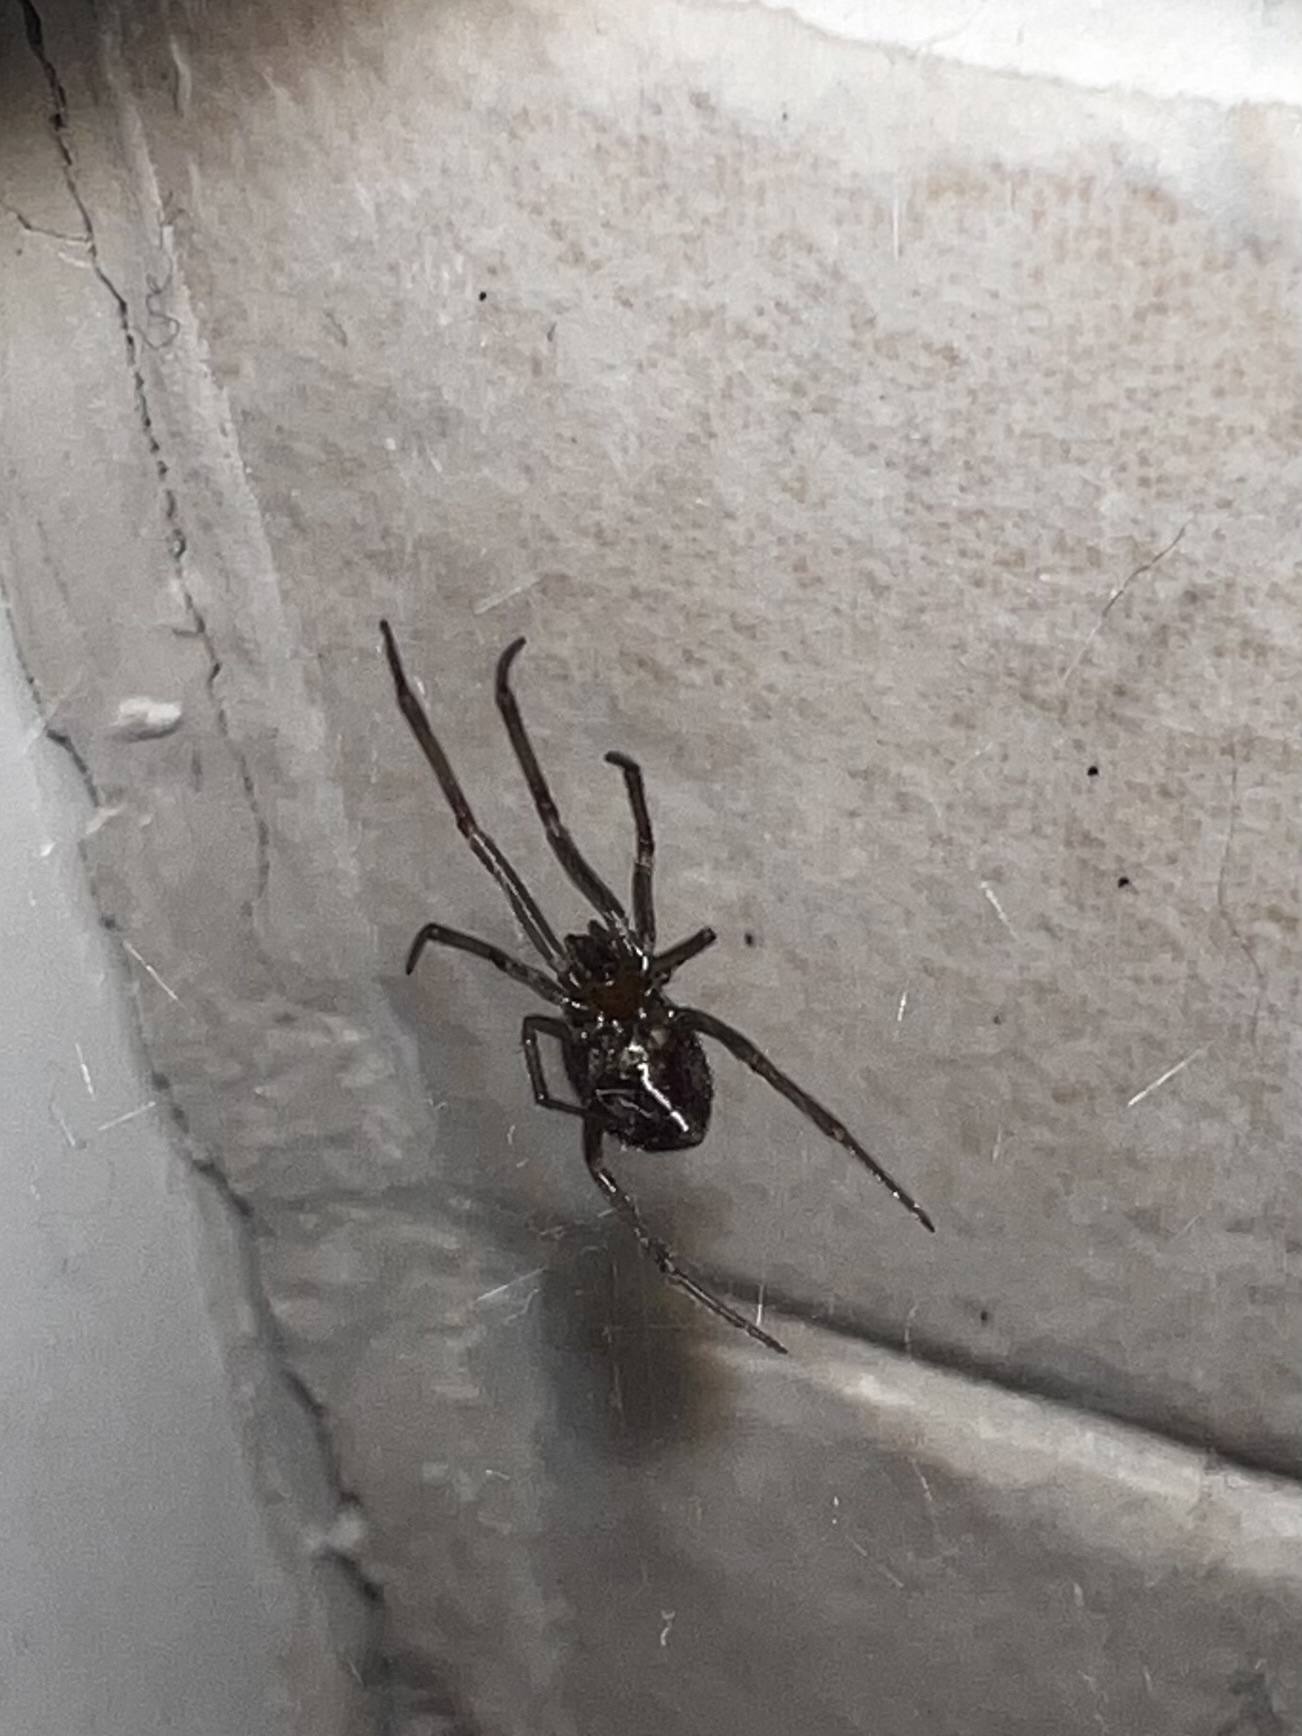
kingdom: Animalia
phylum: Arthropoda
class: Arachnida
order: Araneae
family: Theridiidae
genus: Steatoda
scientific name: Steatoda grossa
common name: False black widow
